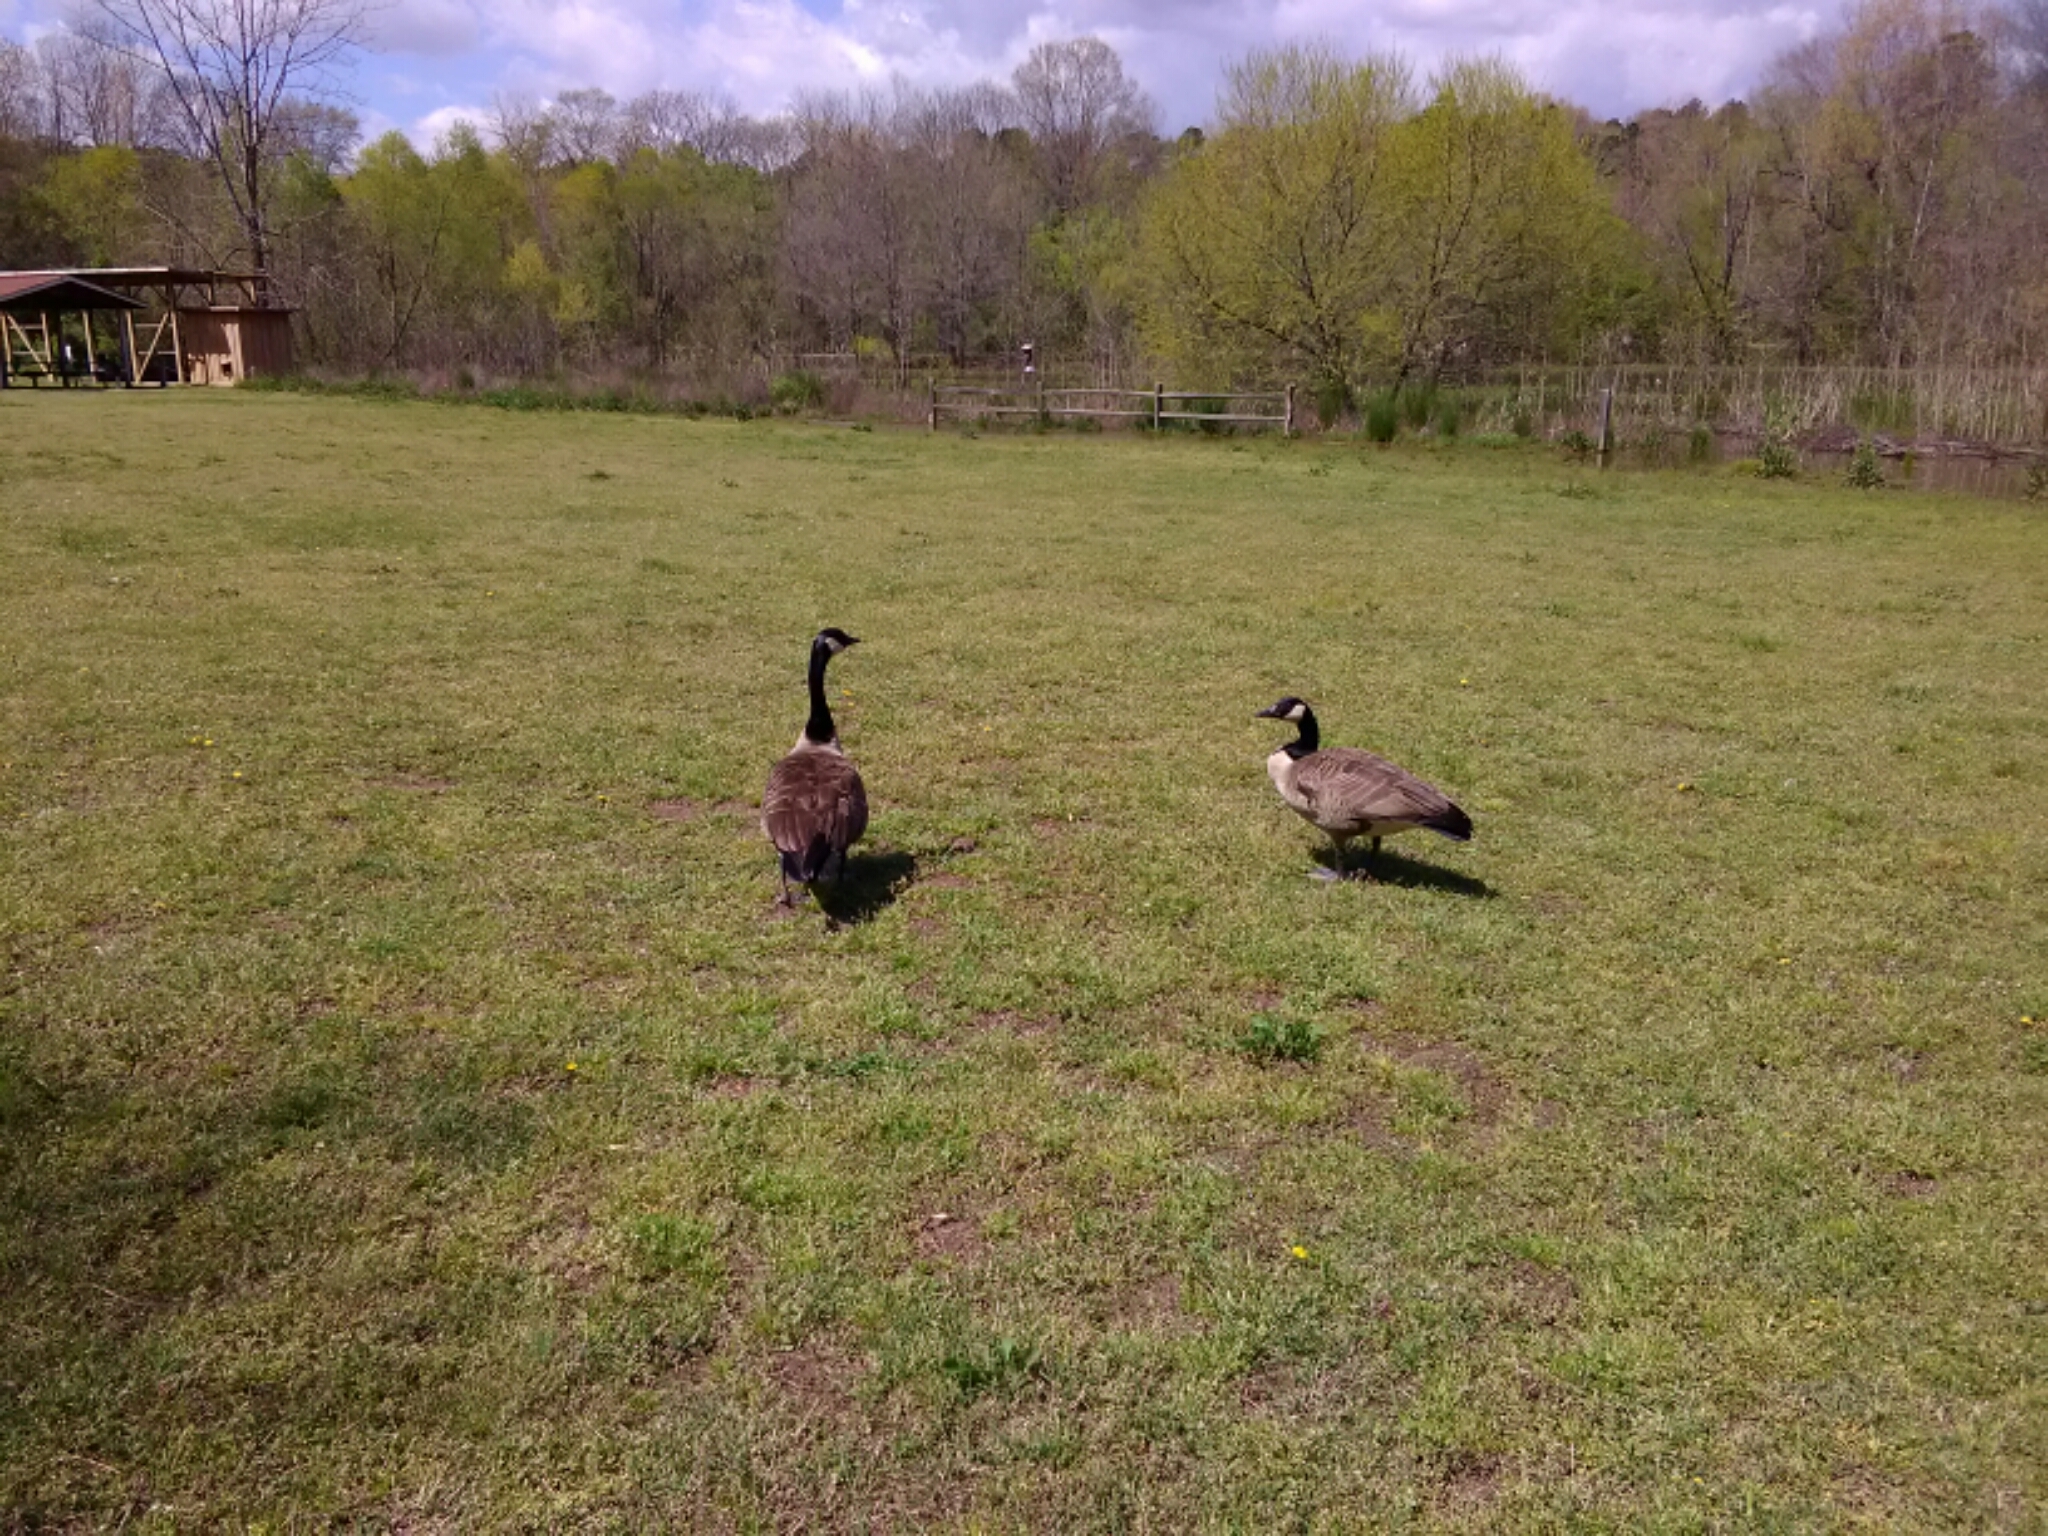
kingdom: Animalia
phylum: Chordata
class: Aves
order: Anseriformes
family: Anatidae
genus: Branta
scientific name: Branta canadensis
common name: Canada goose
